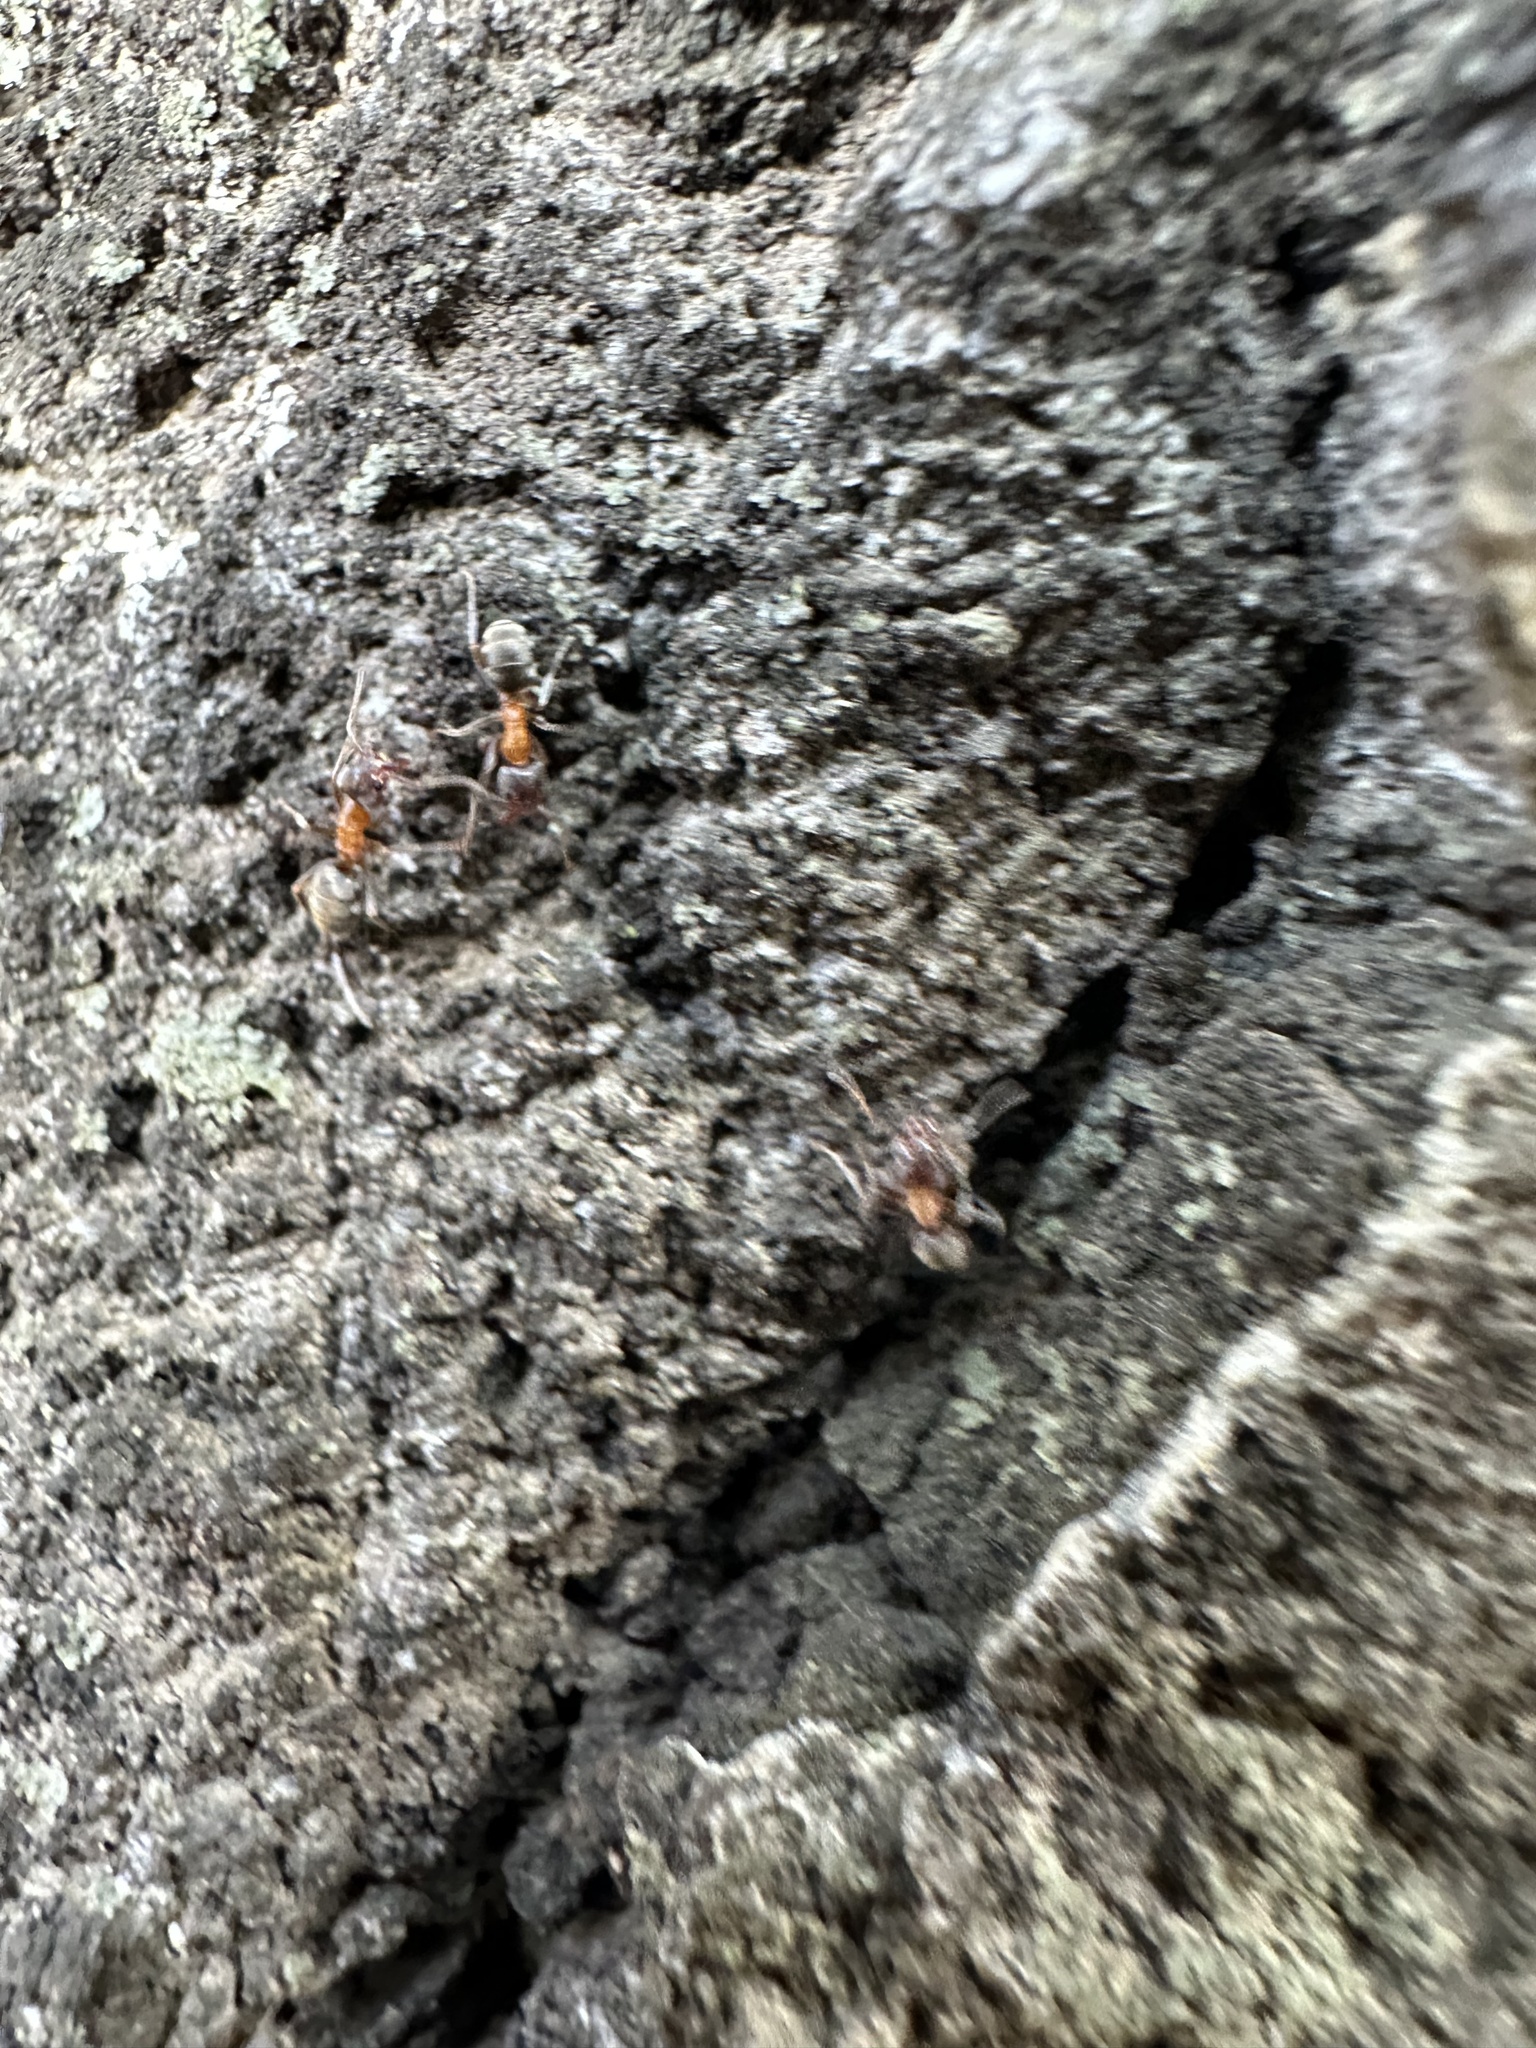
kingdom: Animalia
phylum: Arthropoda
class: Insecta
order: Hymenoptera
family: Formicidae
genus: Liometopum
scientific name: Liometopum occidentale
